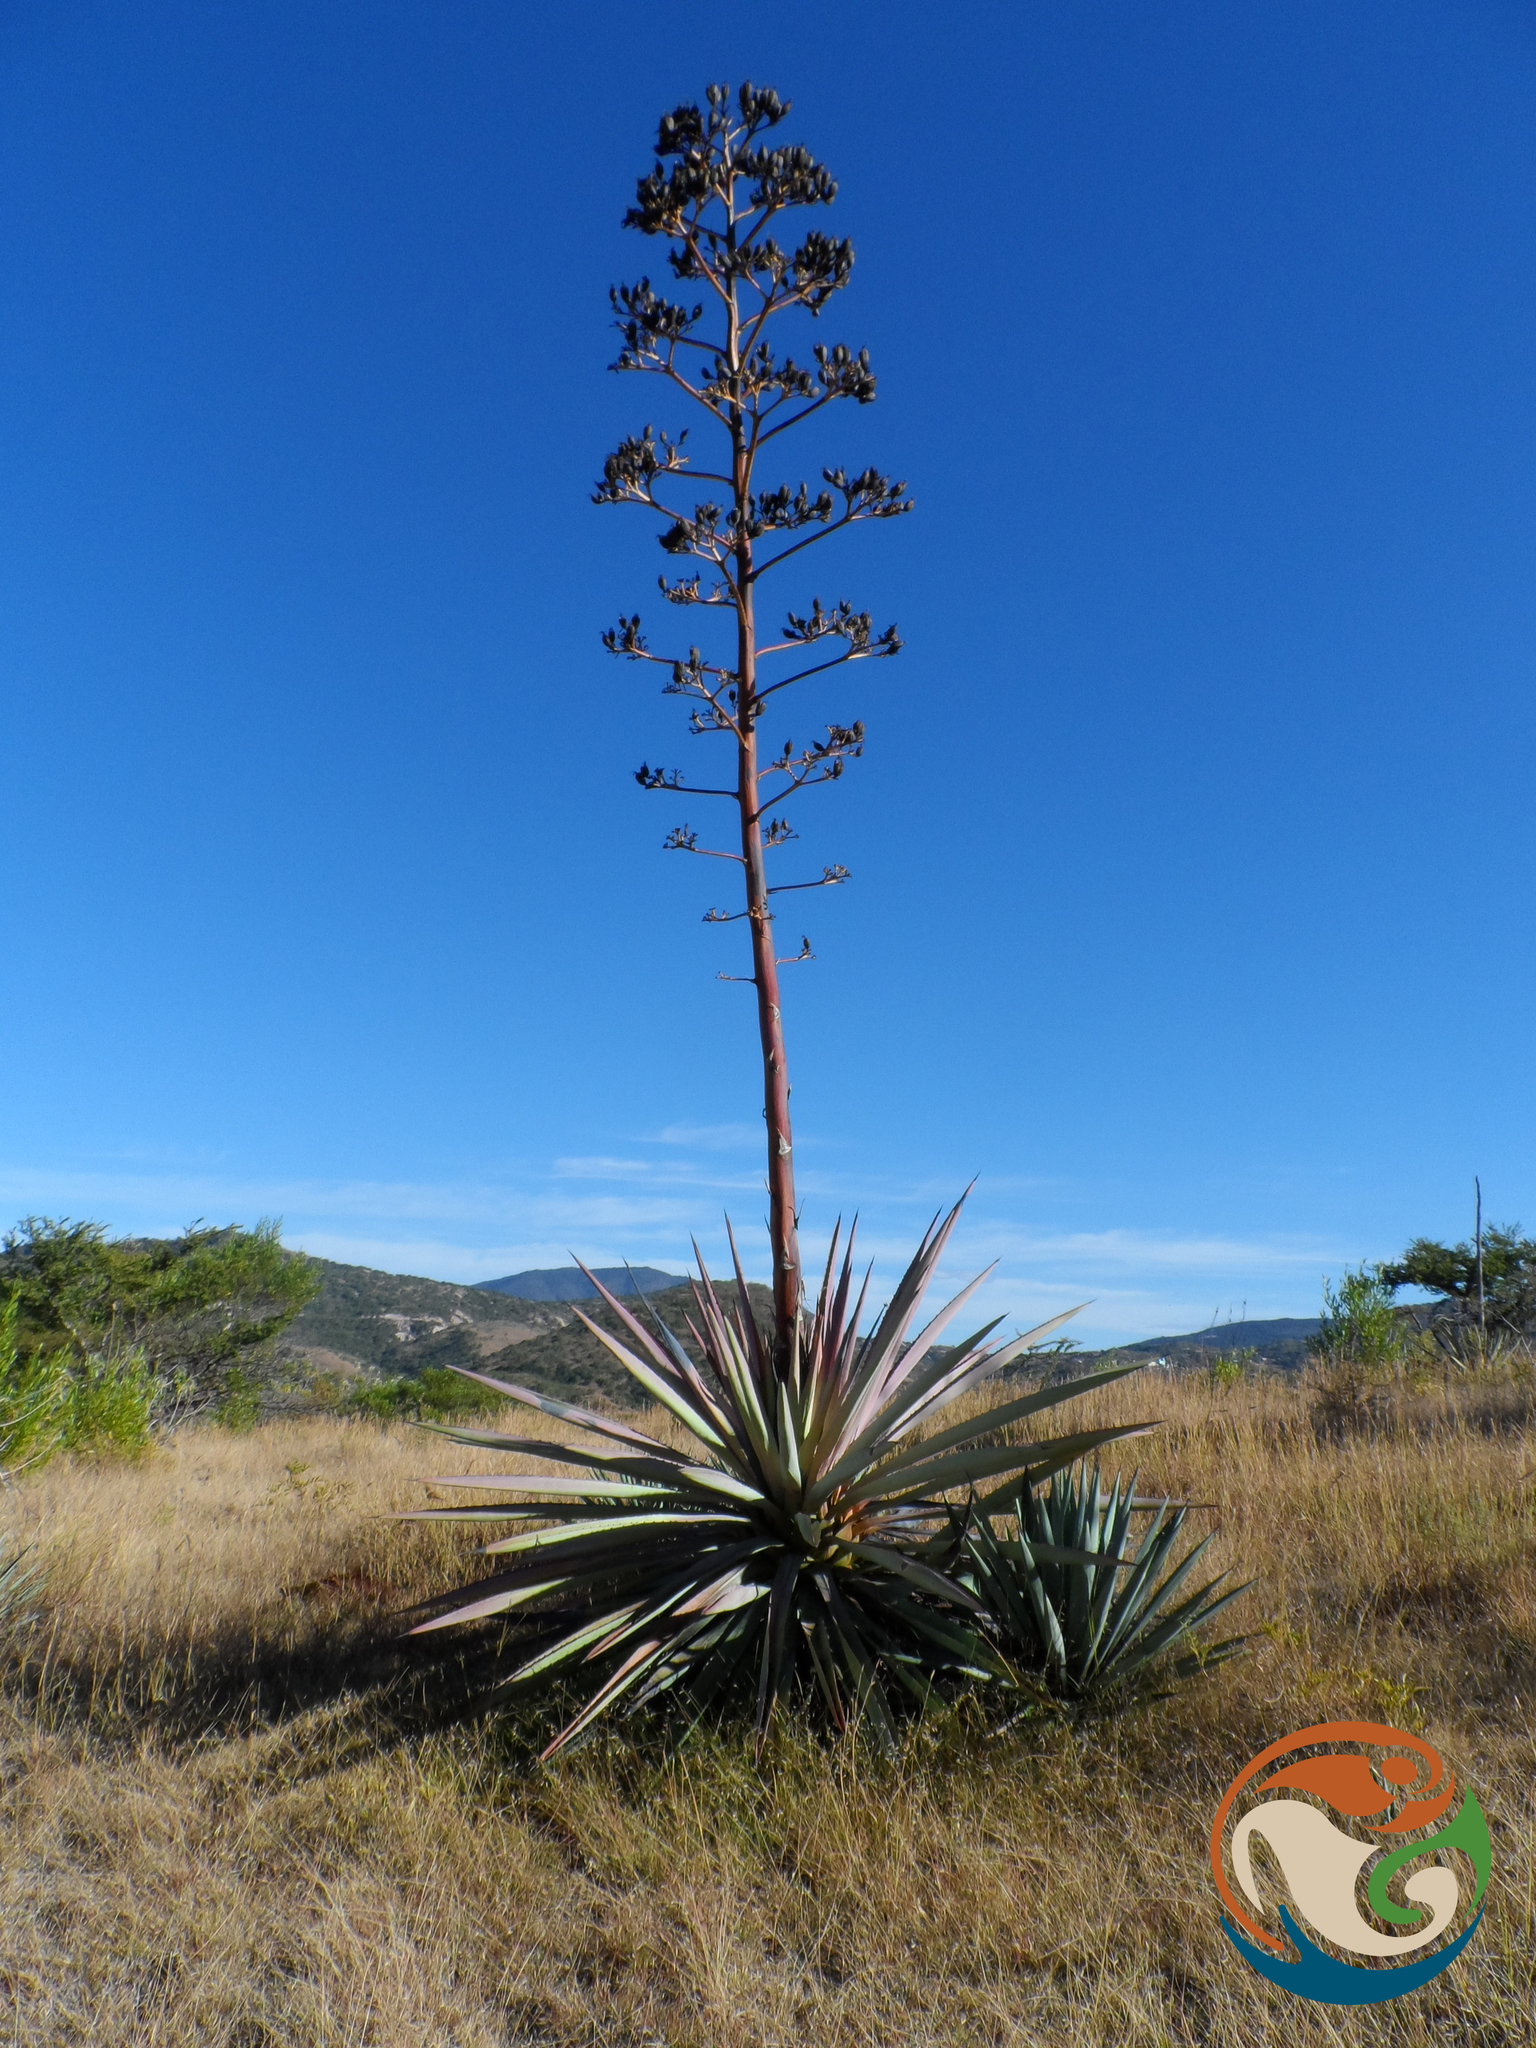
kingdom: Plantae
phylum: Tracheophyta
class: Liliopsida
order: Asparagales
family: Asparagaceae
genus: Agave
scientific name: Agave angustifolia
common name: Mescal agave
